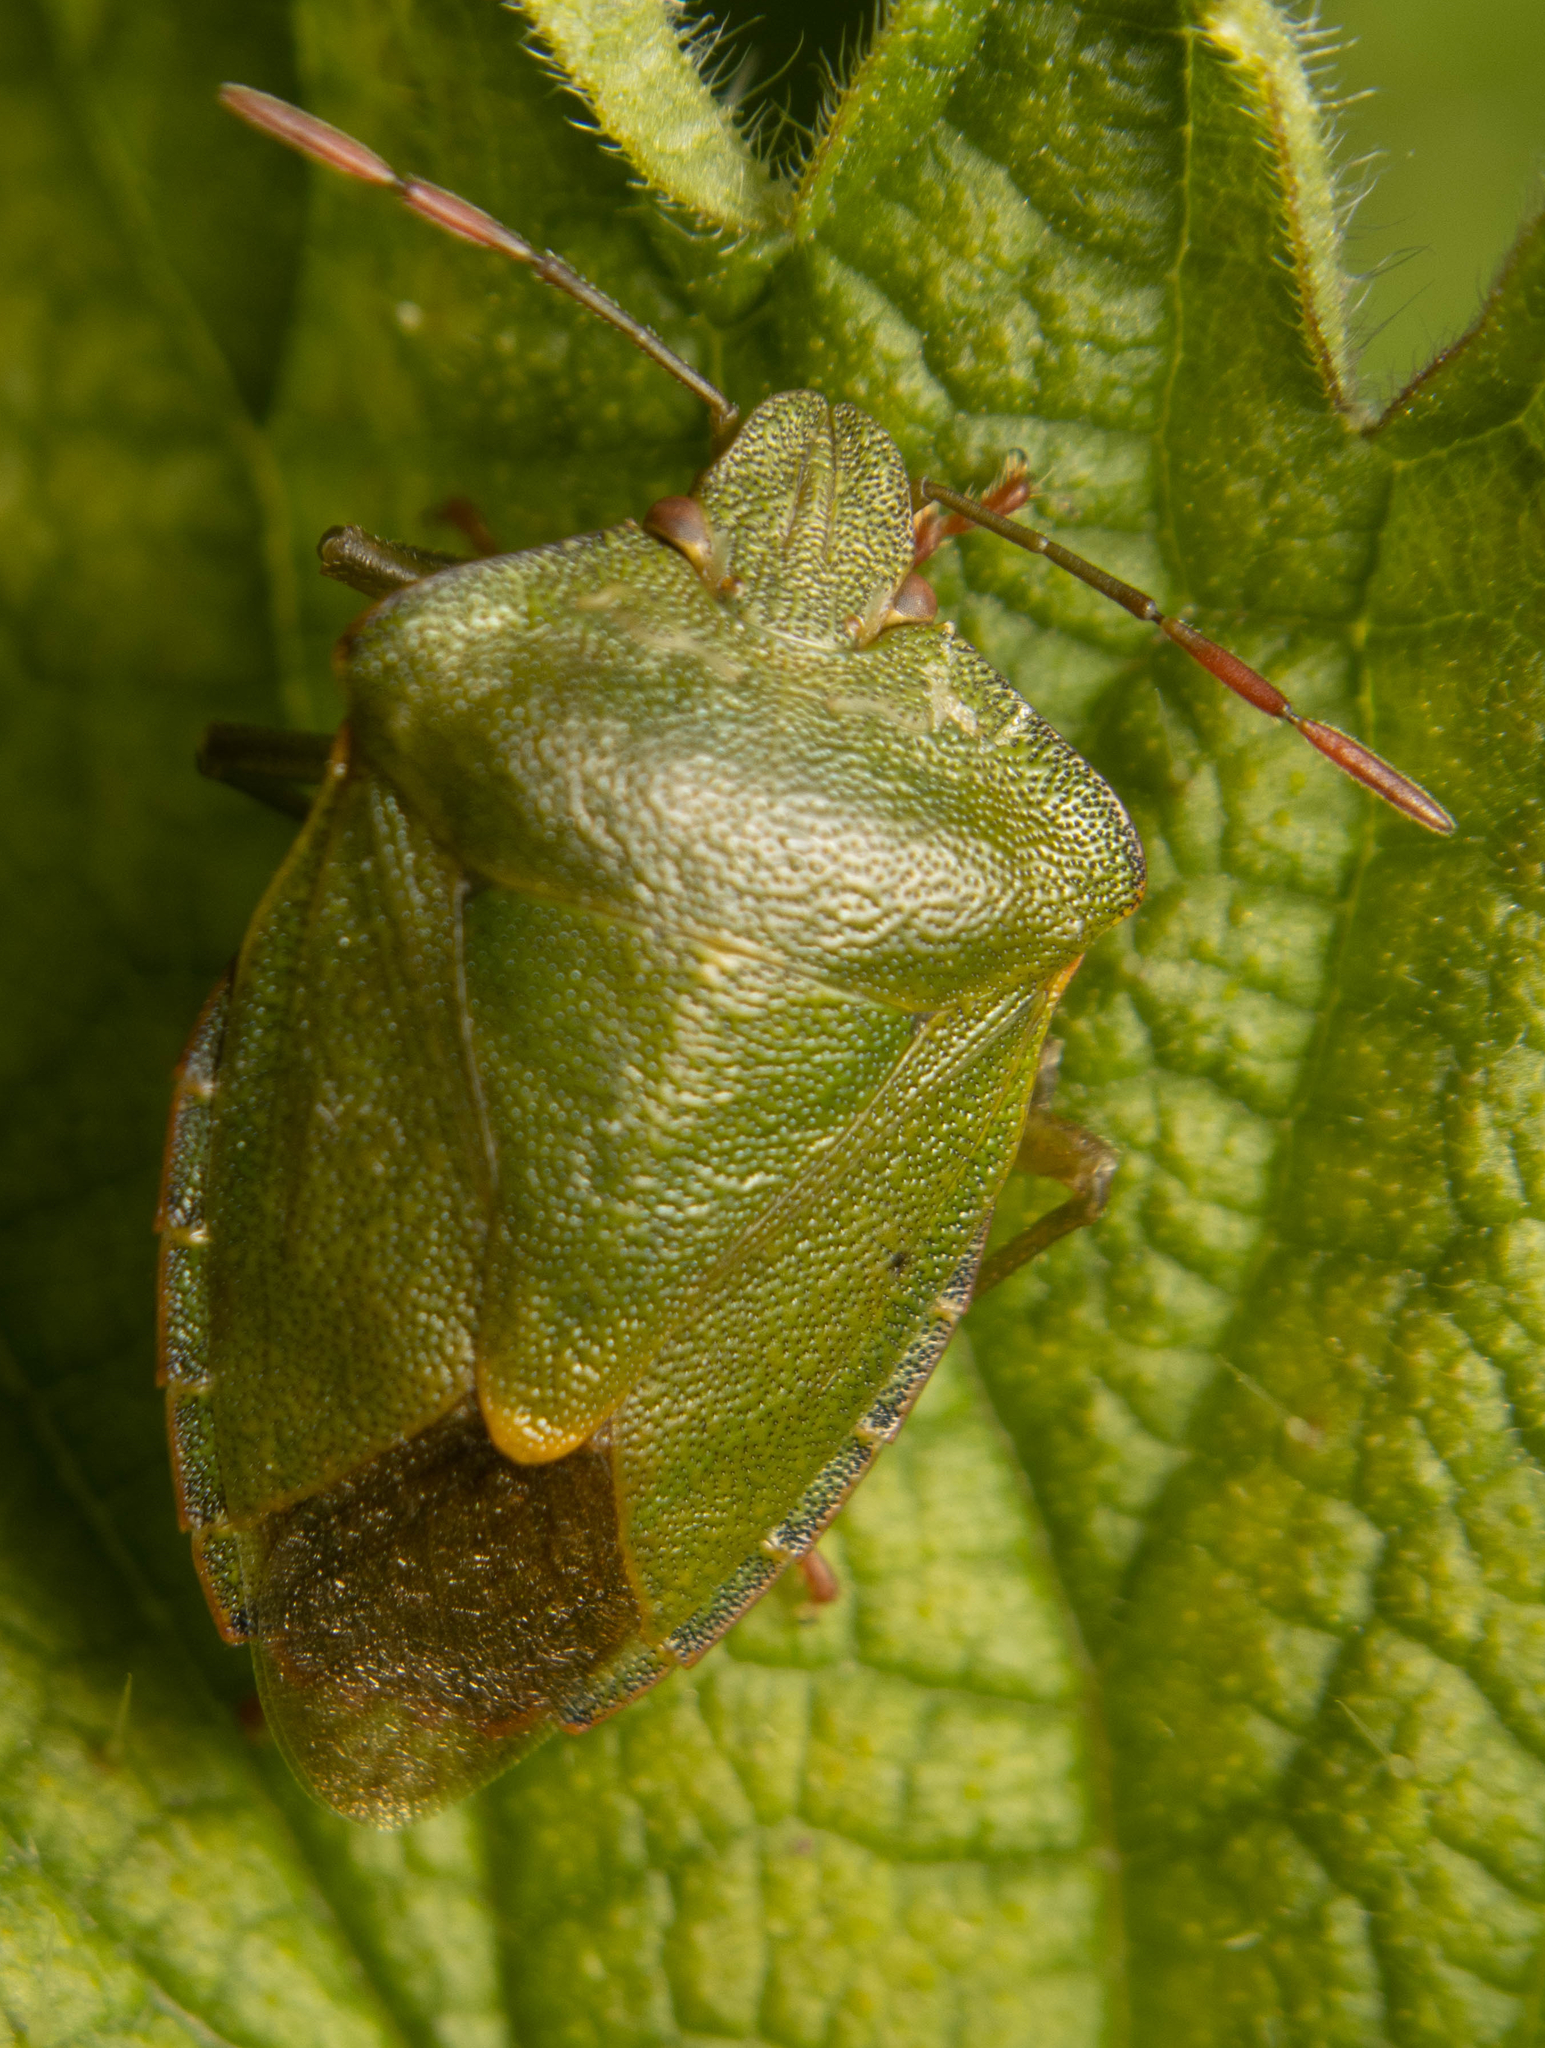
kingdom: Animalia
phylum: Arthropoda
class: Insecta
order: Hemiptera
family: Pentatomidae
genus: Palomena
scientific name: Palomena prasina
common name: Green shieldbug
